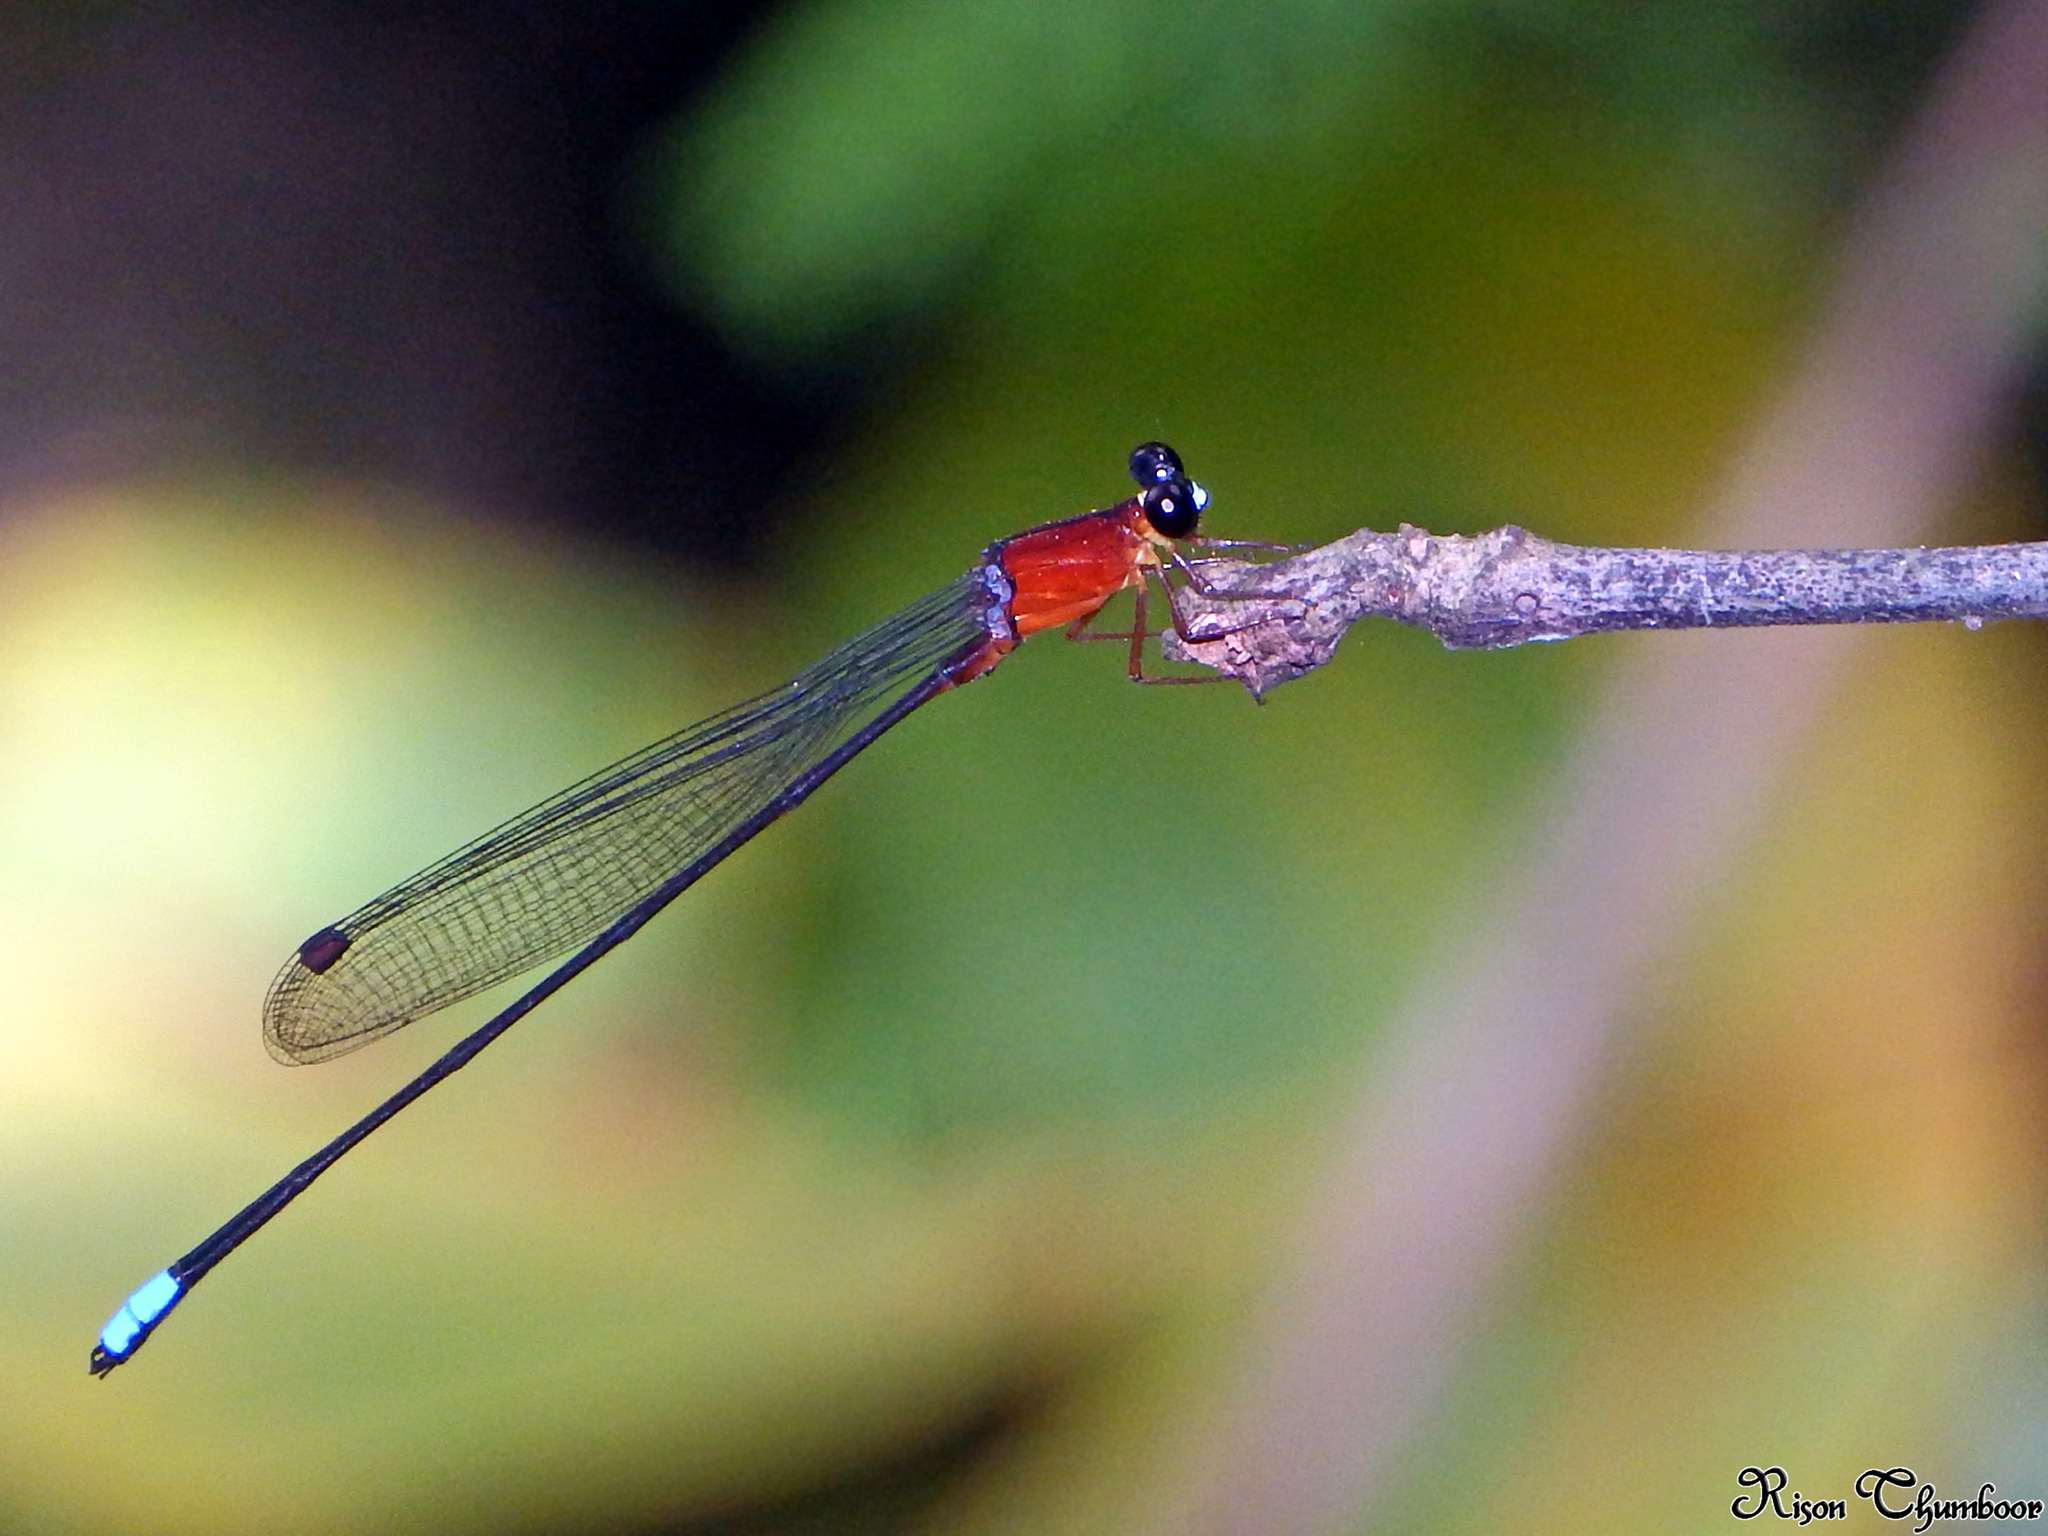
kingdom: Animalia
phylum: Arthropoda
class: Insecta
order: Odonata
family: Platystictidae
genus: Indosticta
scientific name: Indosticta deccanensis
